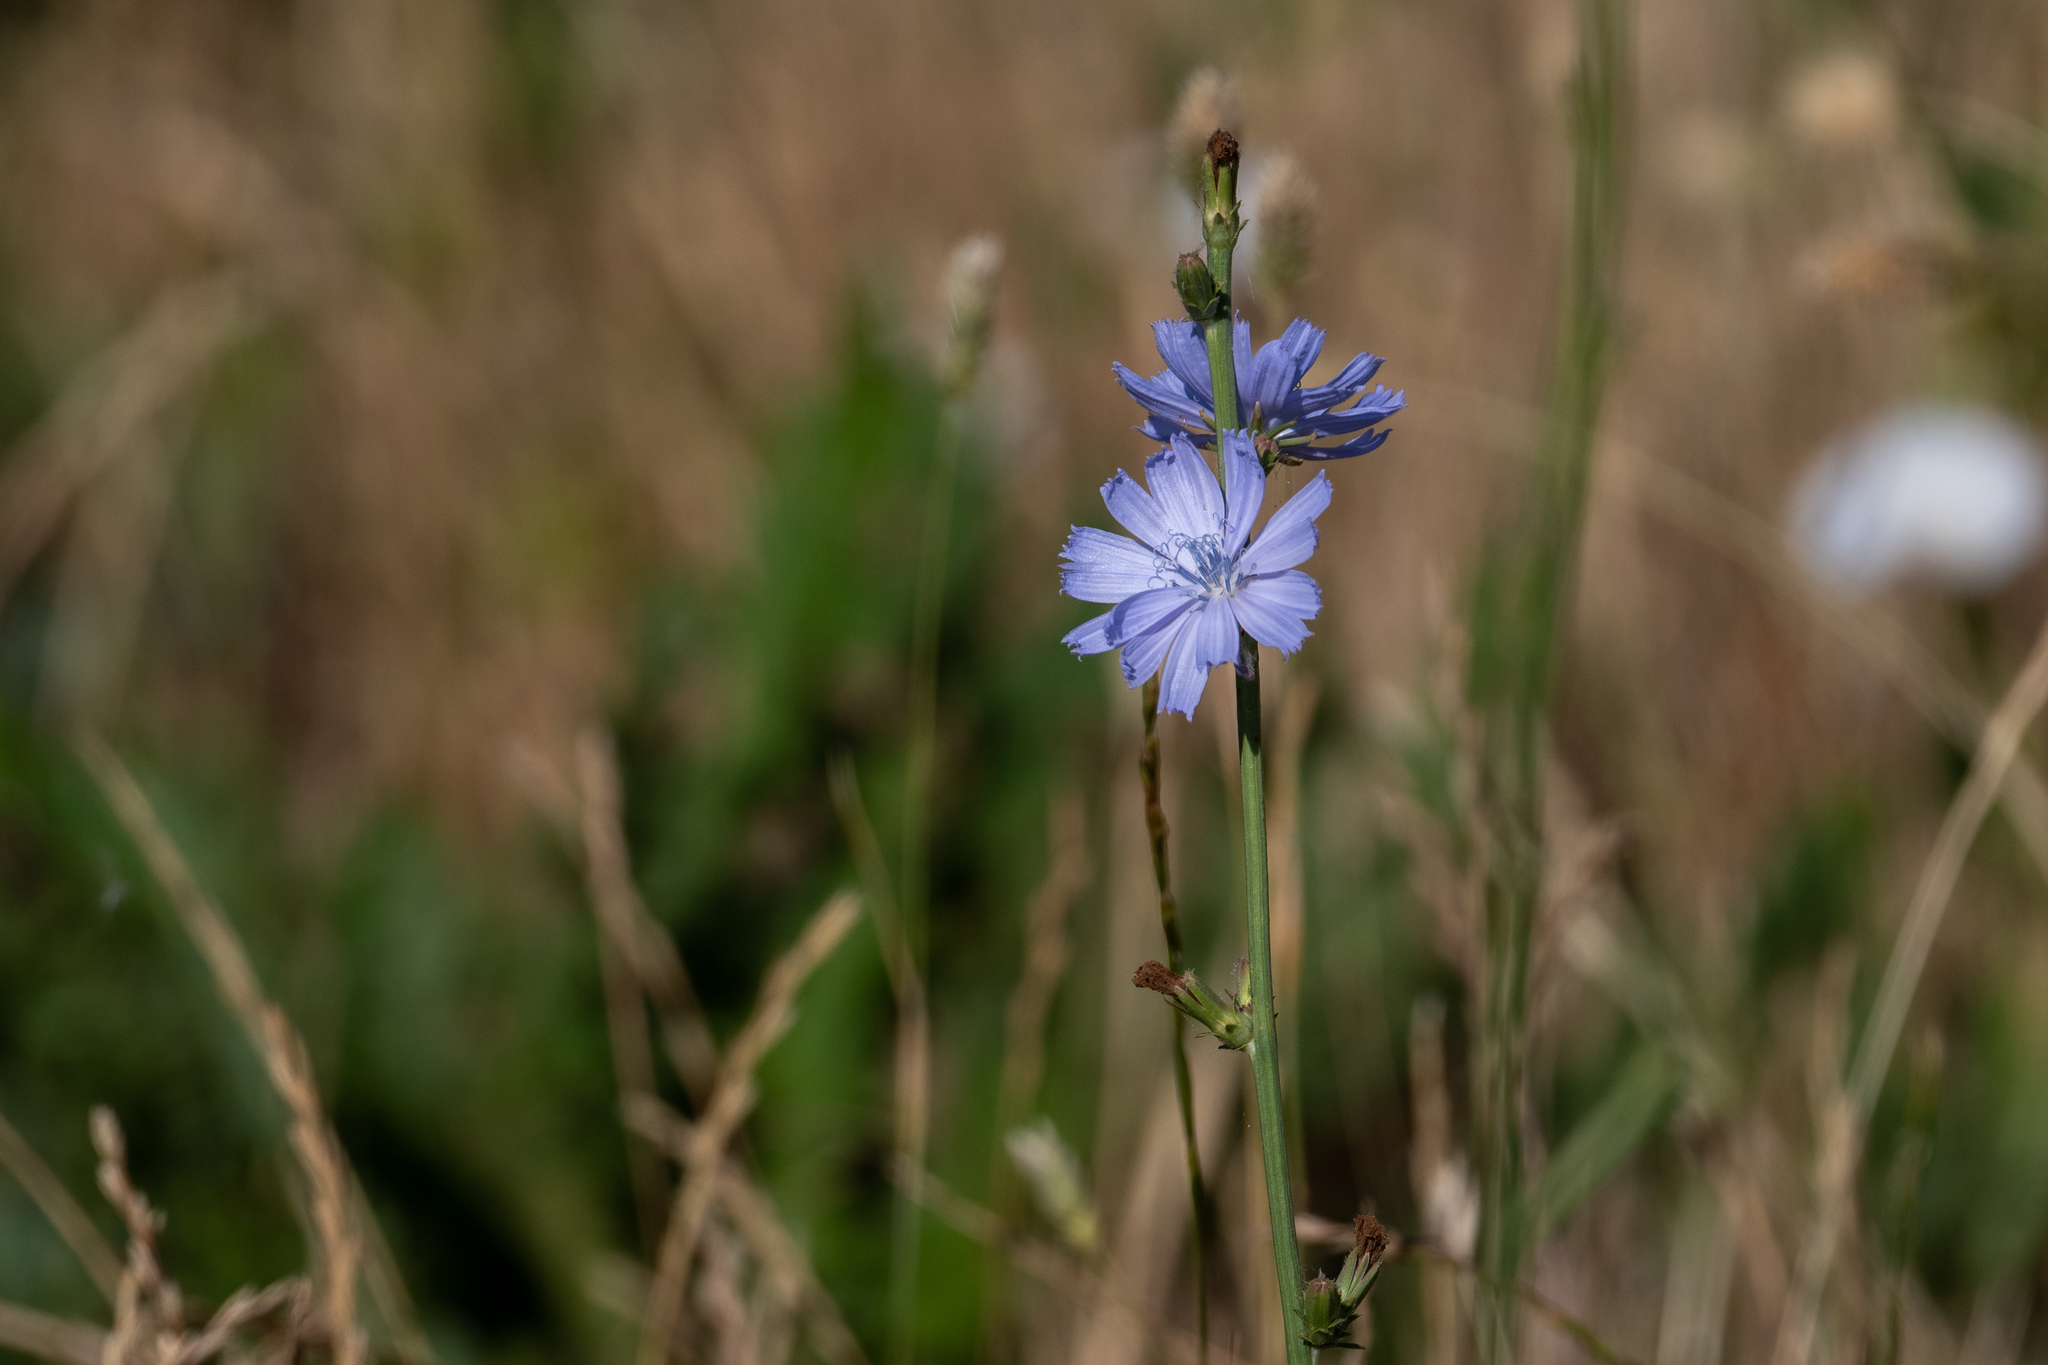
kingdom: Plantae
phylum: Tracheophyta
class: Magnoliopsida
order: Asterales
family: Asteraceae
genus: Cichorium
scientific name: Cichorium intybus
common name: Chicory
